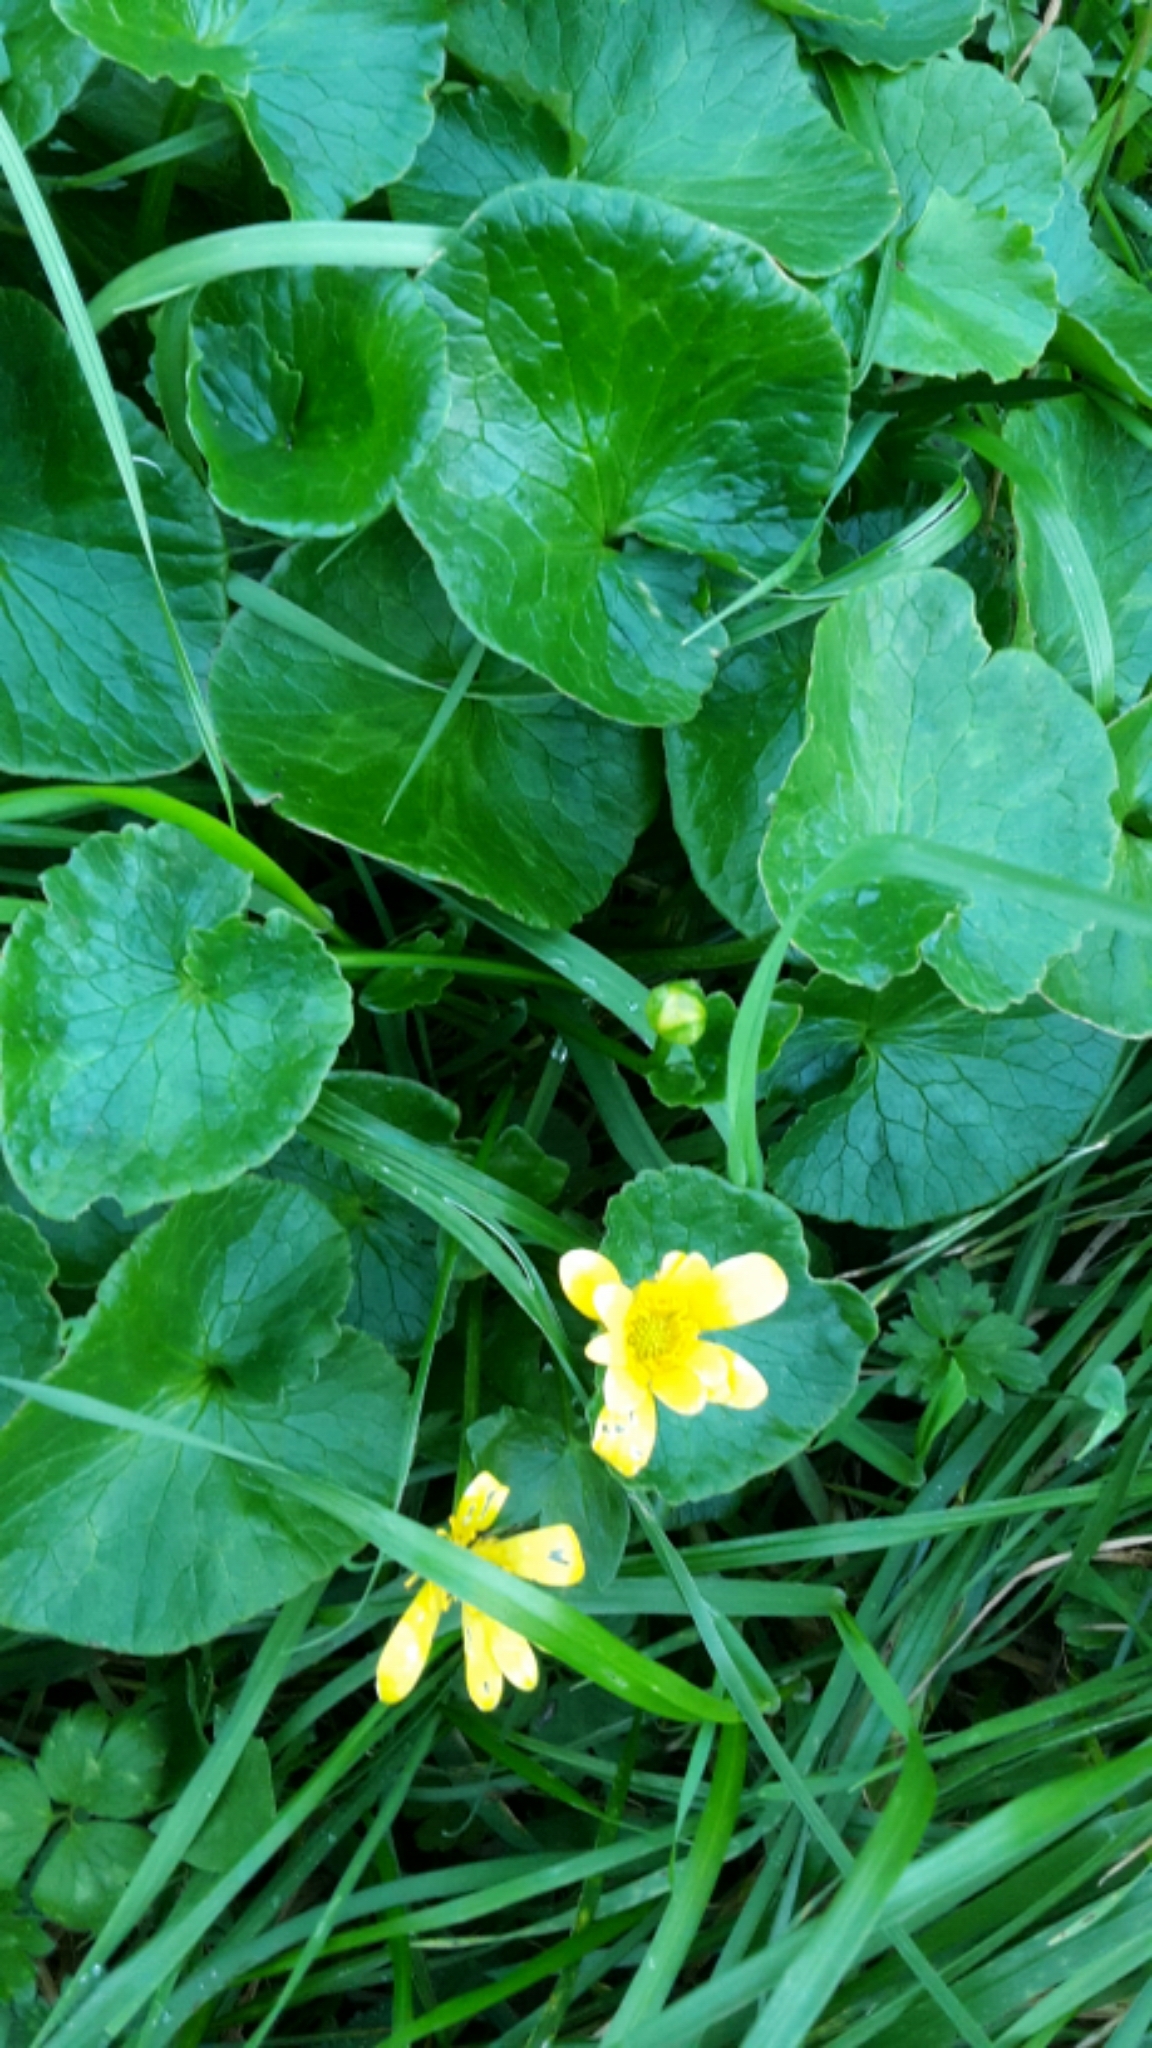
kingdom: Plantae
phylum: Tracheophyta
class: Magnoliopsida
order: Ranunculales
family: Ranunculaceae
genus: Ficaria
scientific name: Ficaria verna
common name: Lesser celandine
